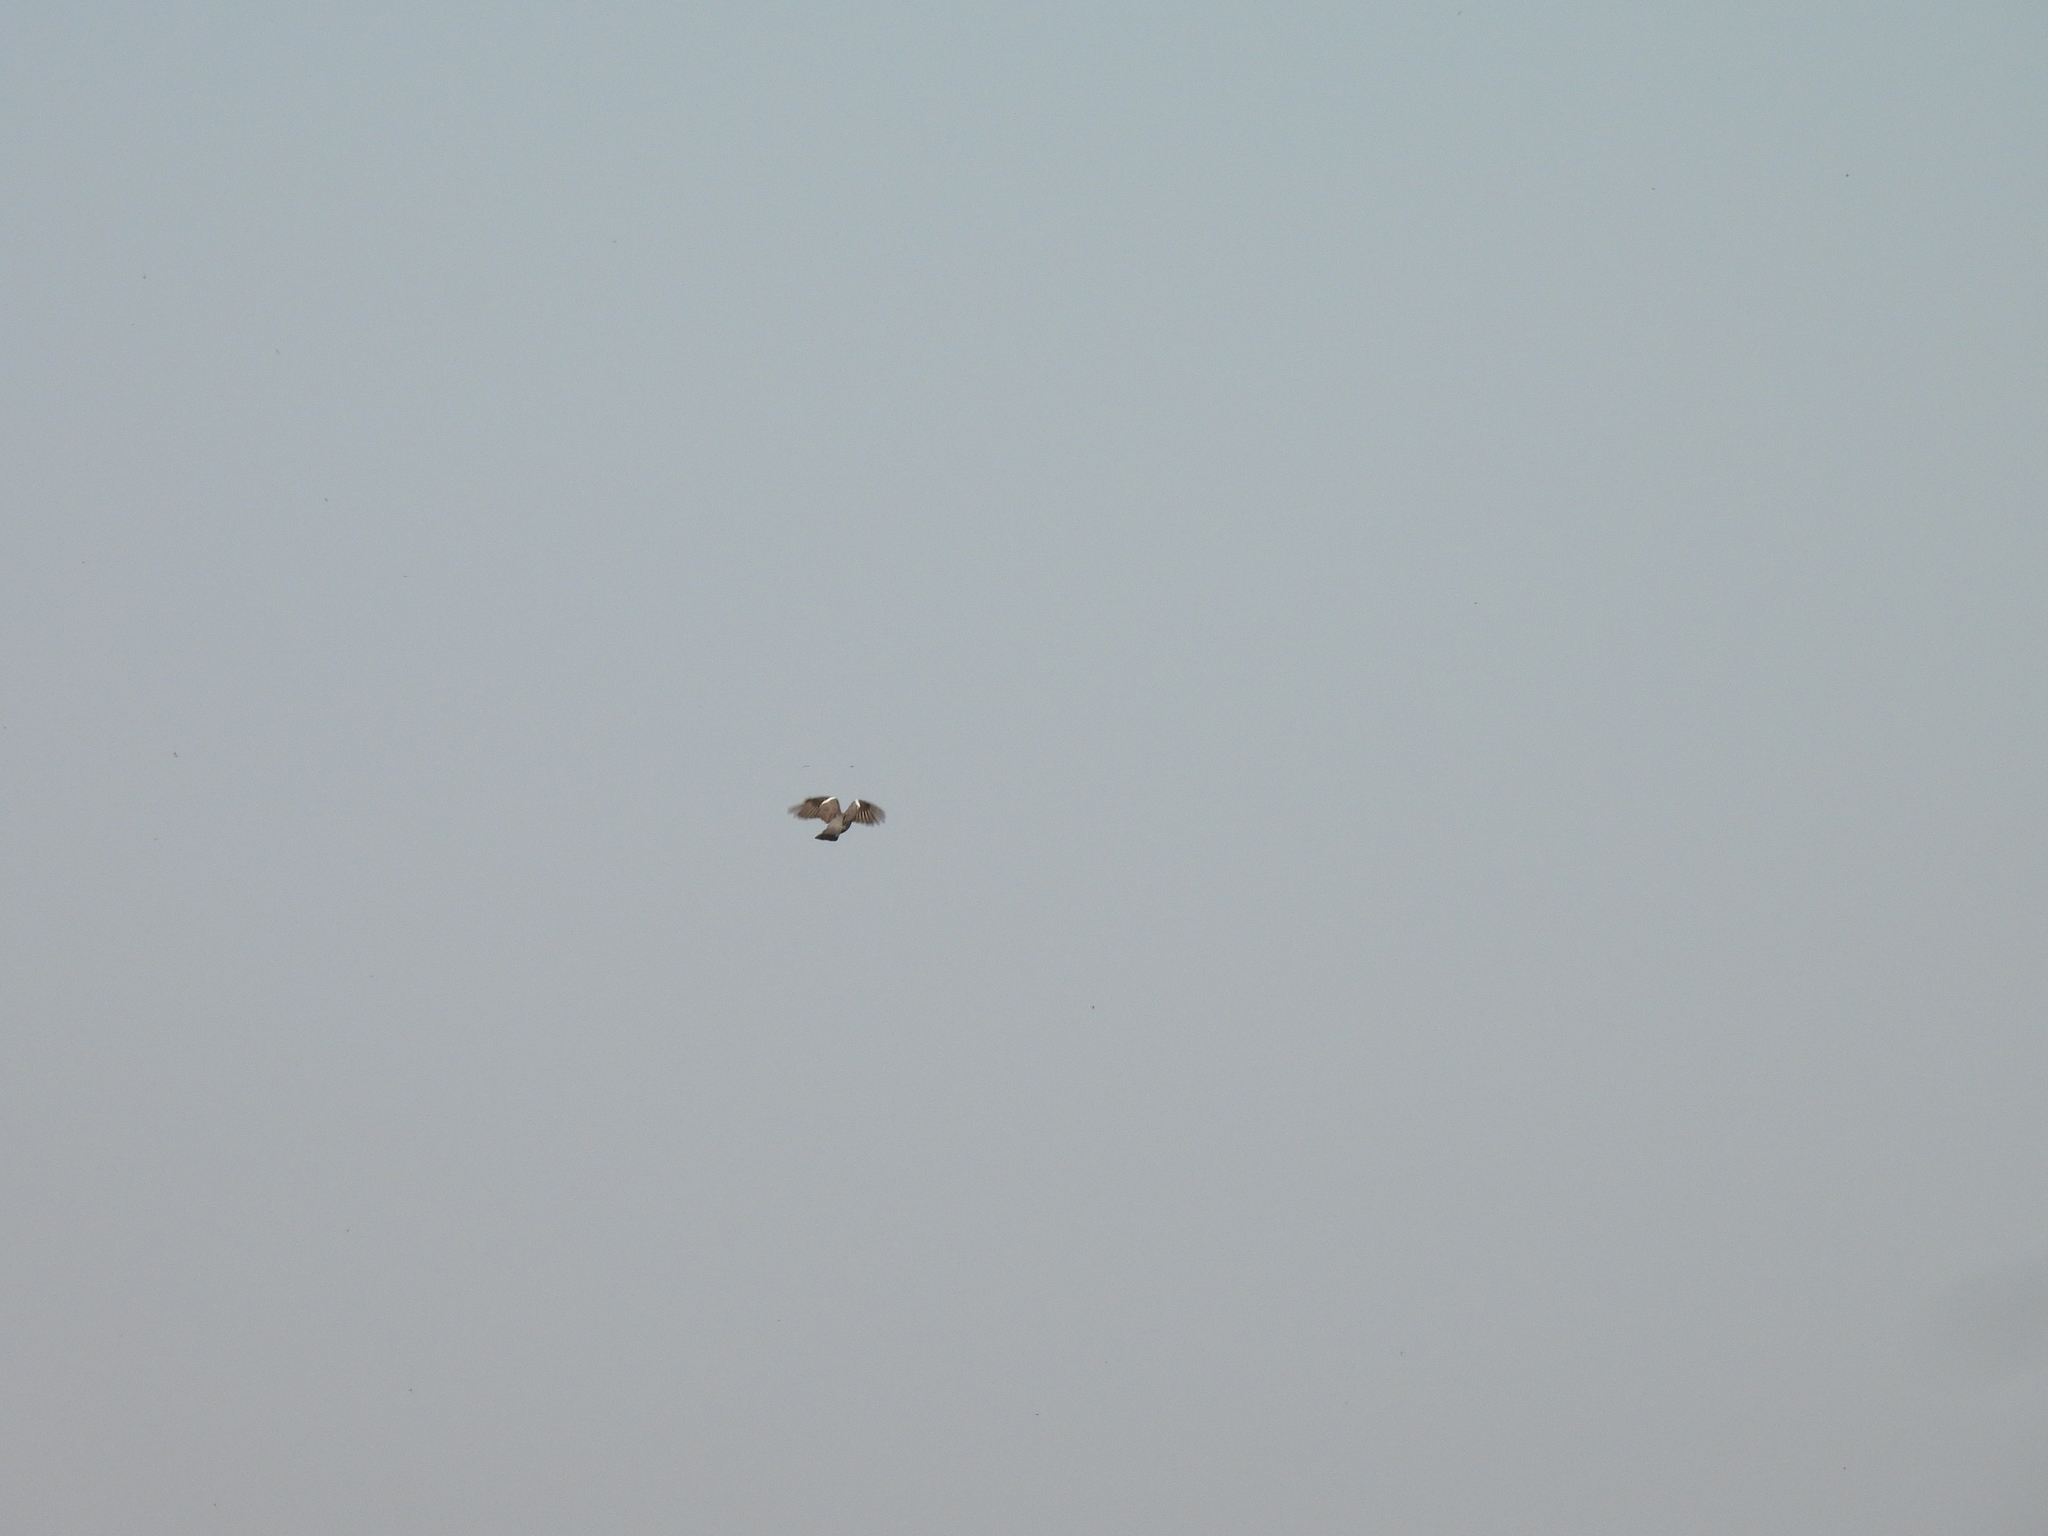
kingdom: Animalia
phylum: Chordata
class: Aves
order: Columbiformes
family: Columbidae
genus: Columba
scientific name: Columba palumbus
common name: Common wood pigeon
